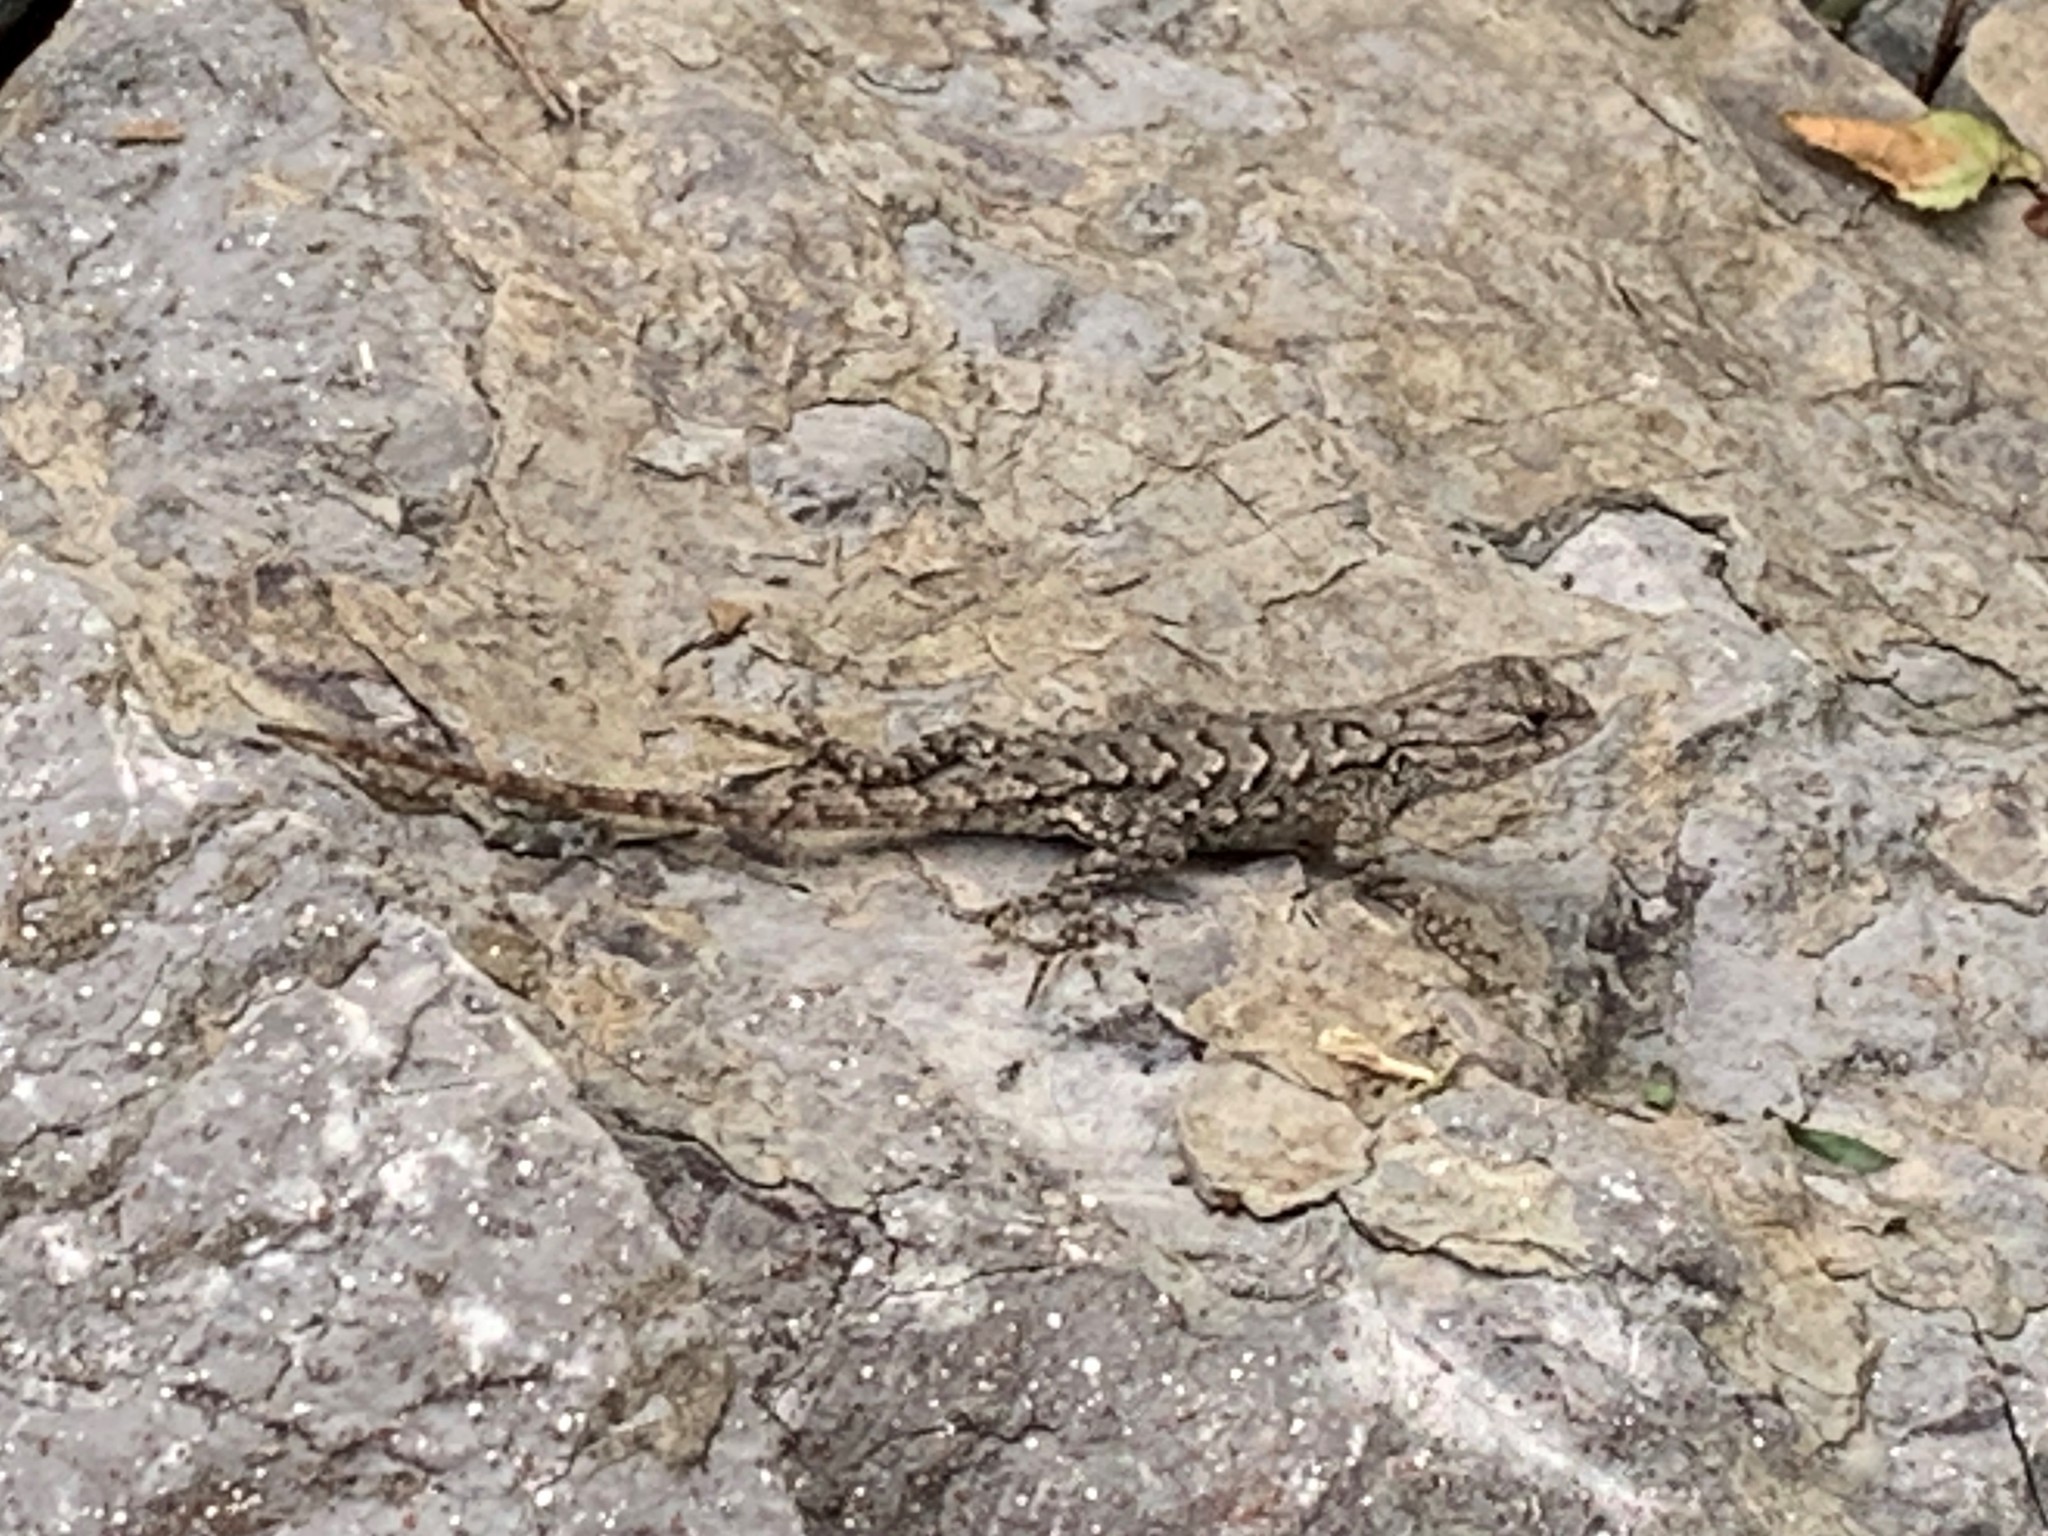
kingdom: Animalia
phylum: Chordata
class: Squamata
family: Phrynosomatidae
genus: Sceloporus
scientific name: Sceloporus undulatus
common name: Eastern fence lizard
